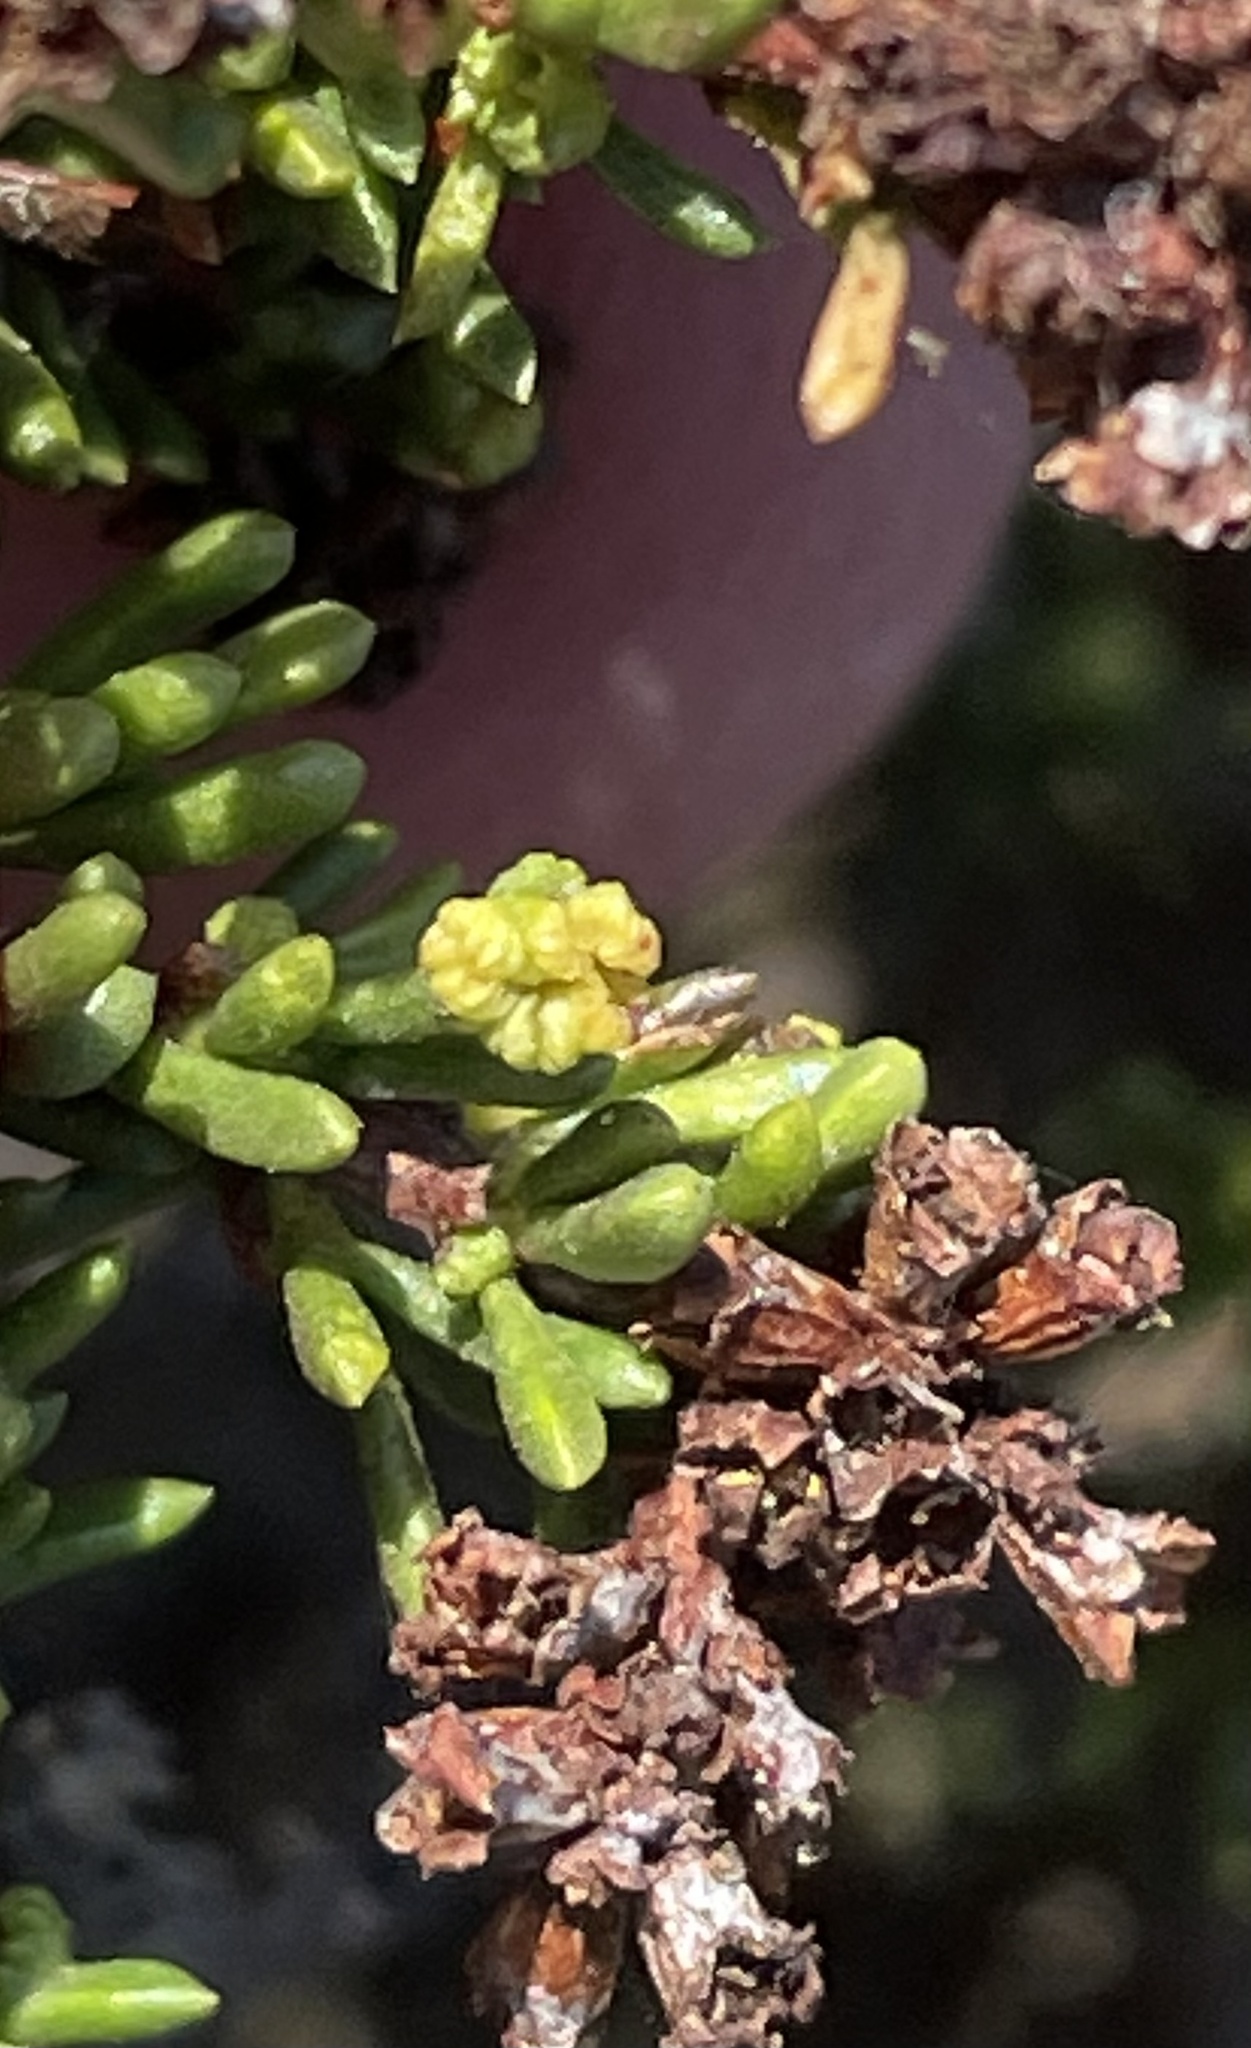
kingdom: Animalia
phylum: Arthropoda
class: Arachnida
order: Trombidiformes
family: Eriophyidae
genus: Eriophyes
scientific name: Eriophyes
